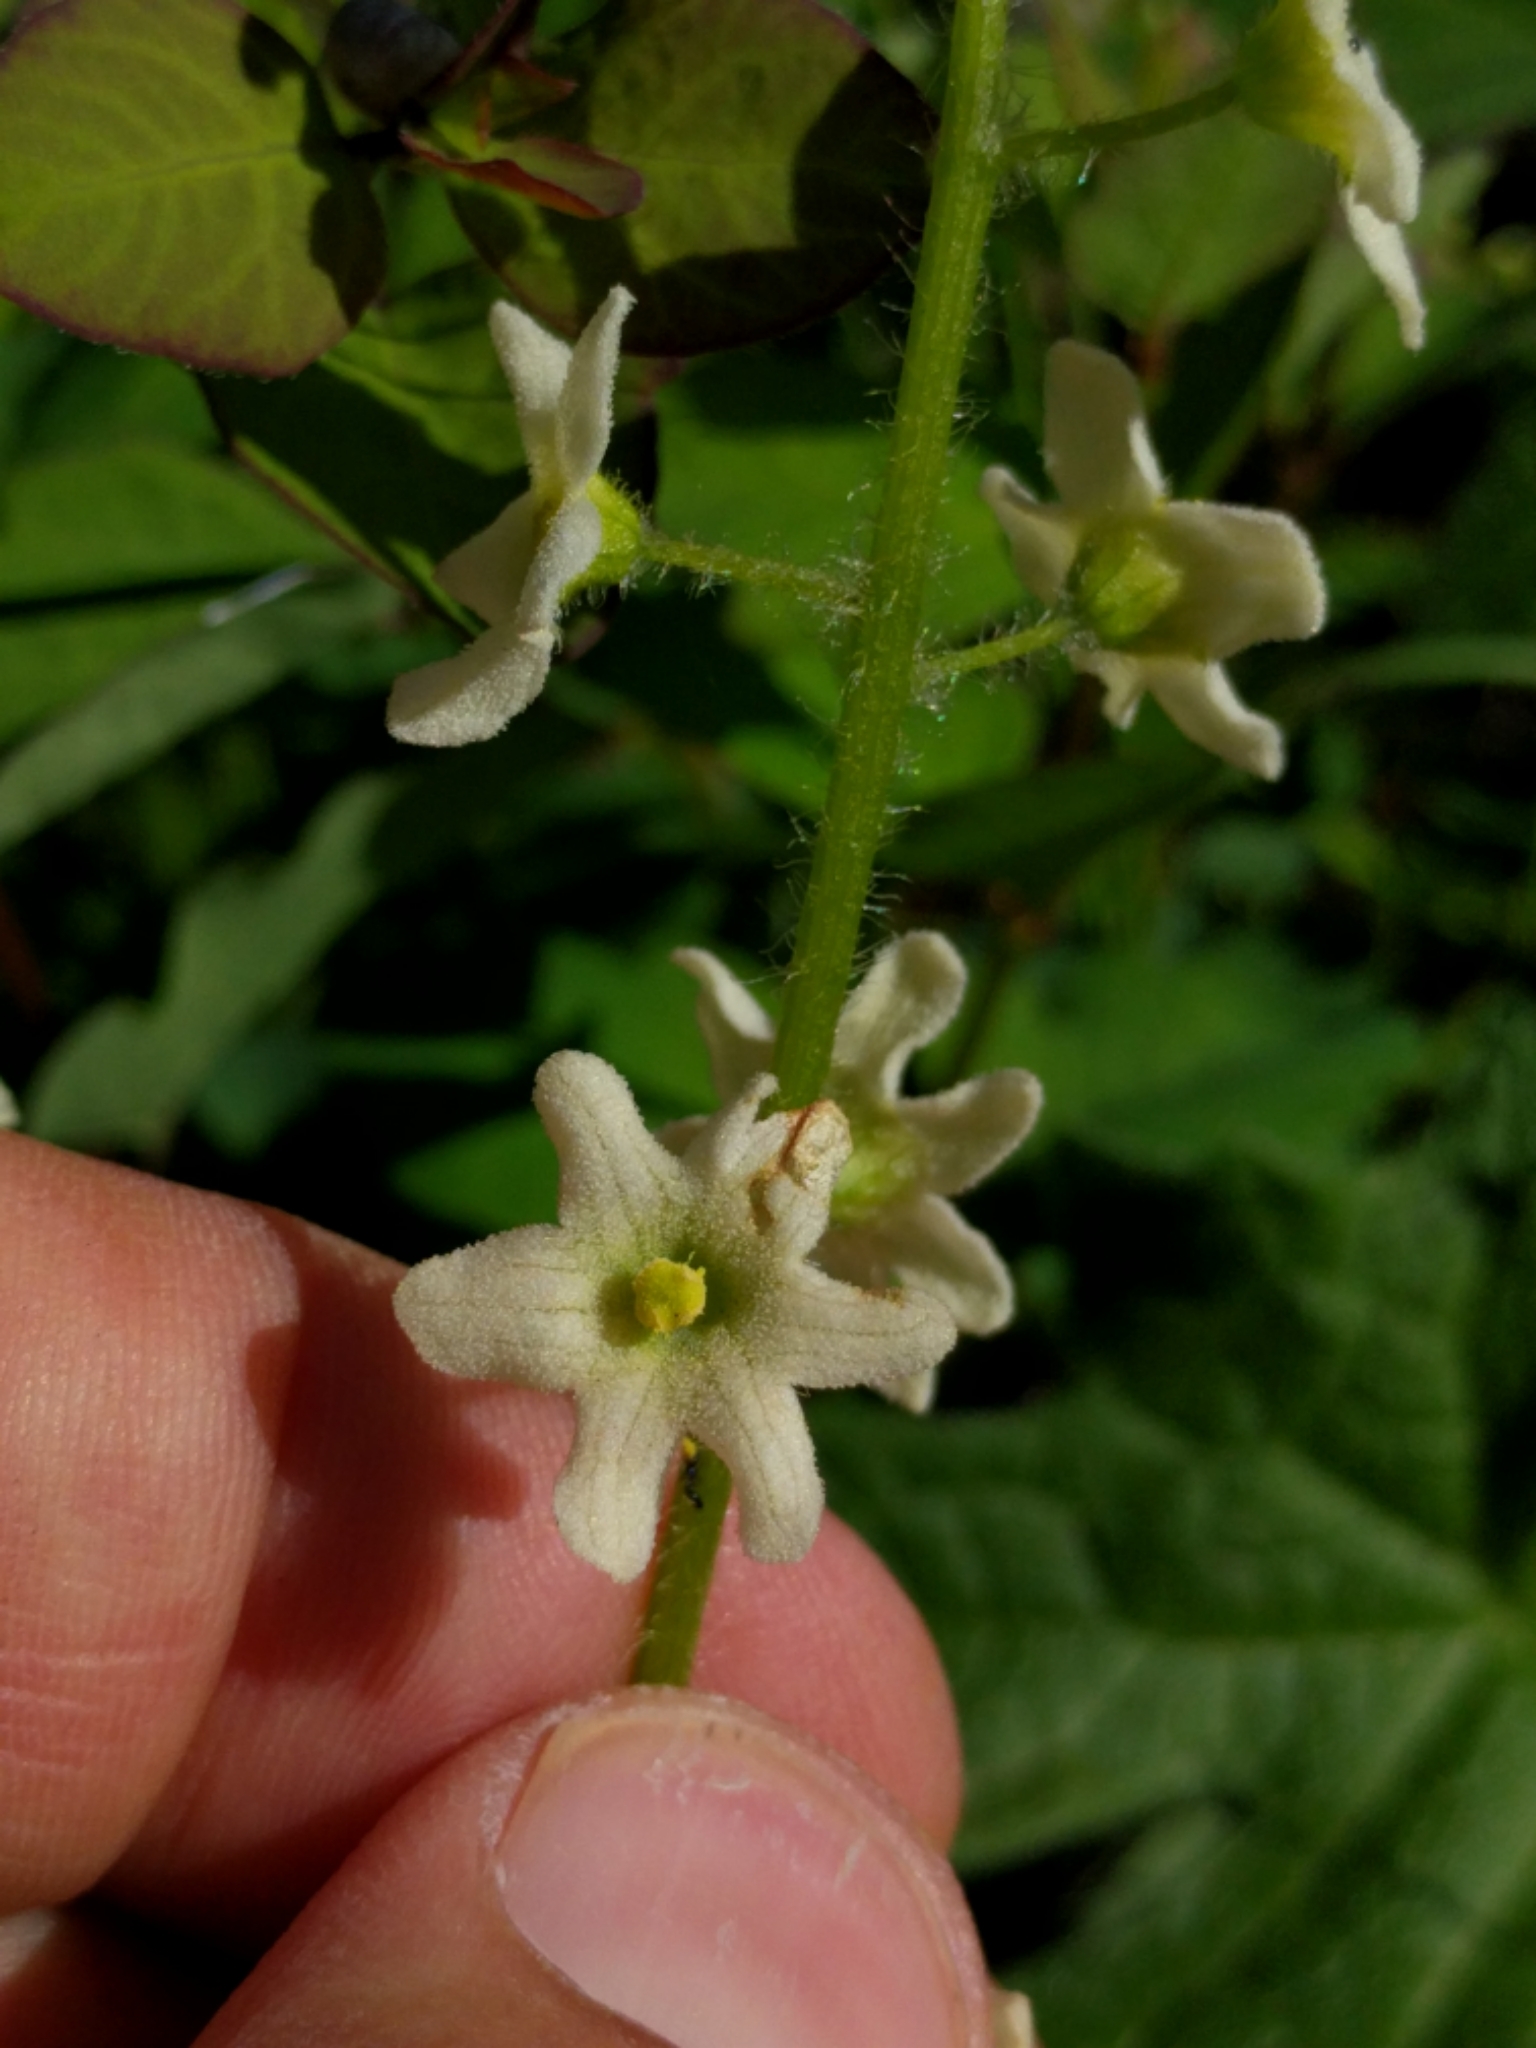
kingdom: Plantae
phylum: Tracheophyta
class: Magnoliopsida
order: Cucurbitales
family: Cucurbitaceae
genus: Marah
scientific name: Marah oregana
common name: Coastal manroot
